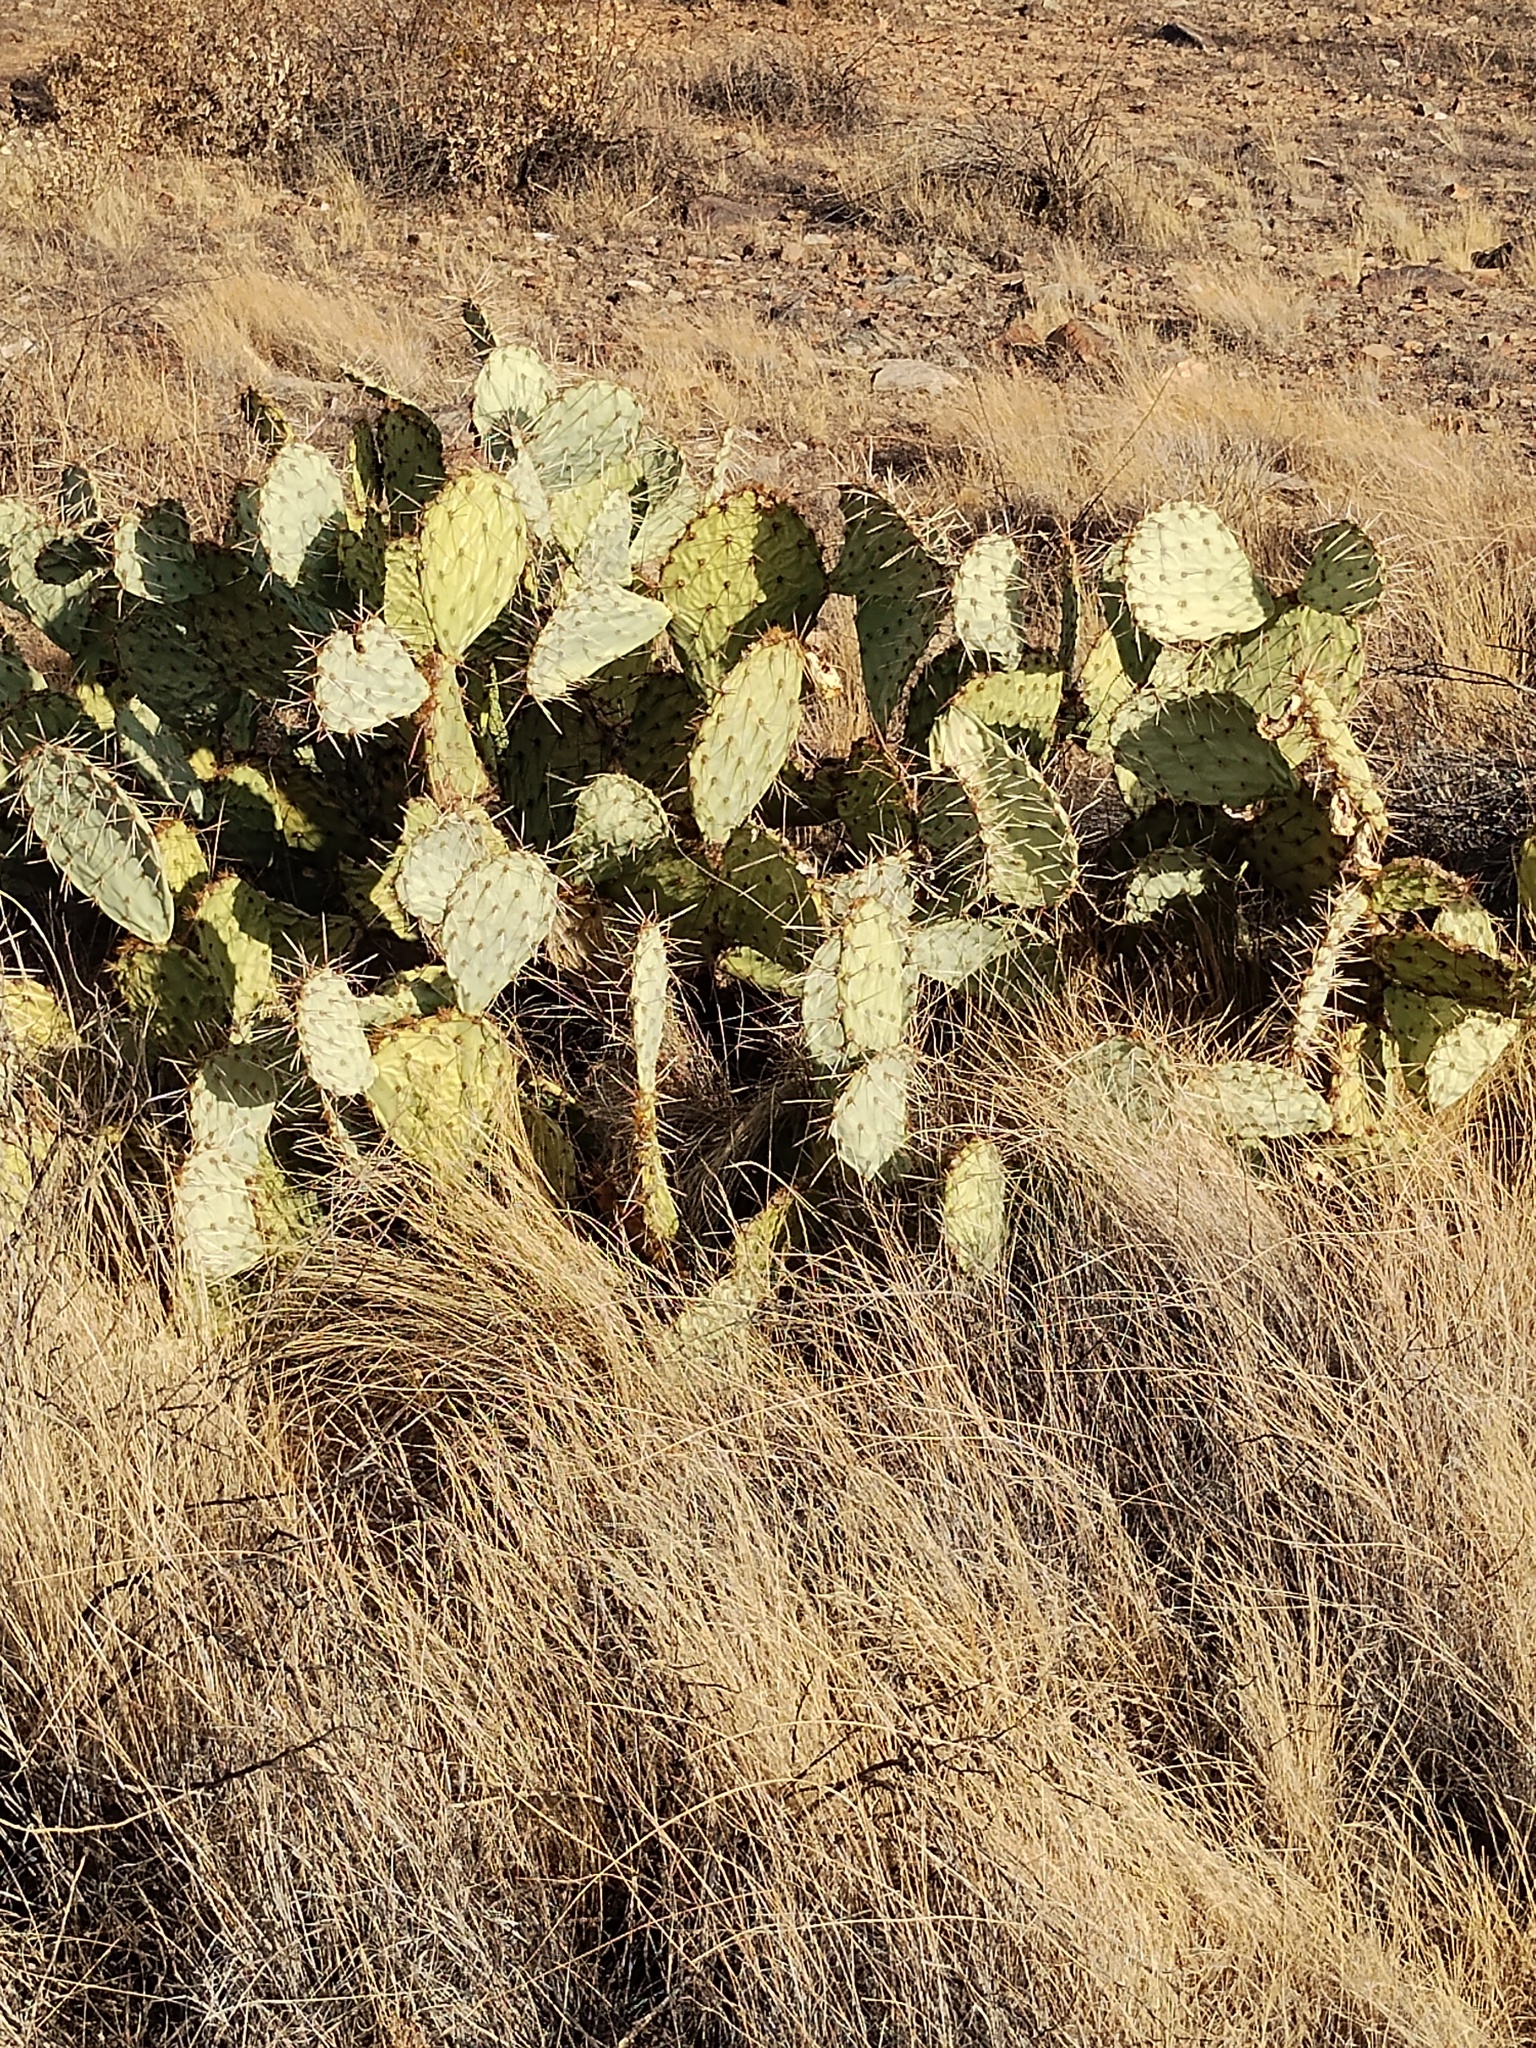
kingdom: Plantae
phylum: Tracheophyta
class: Magnoliopsida
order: Caryophyllales
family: Cactaceae
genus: Opuntia
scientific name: Opuntia engelmannii
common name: Cactus-apple
